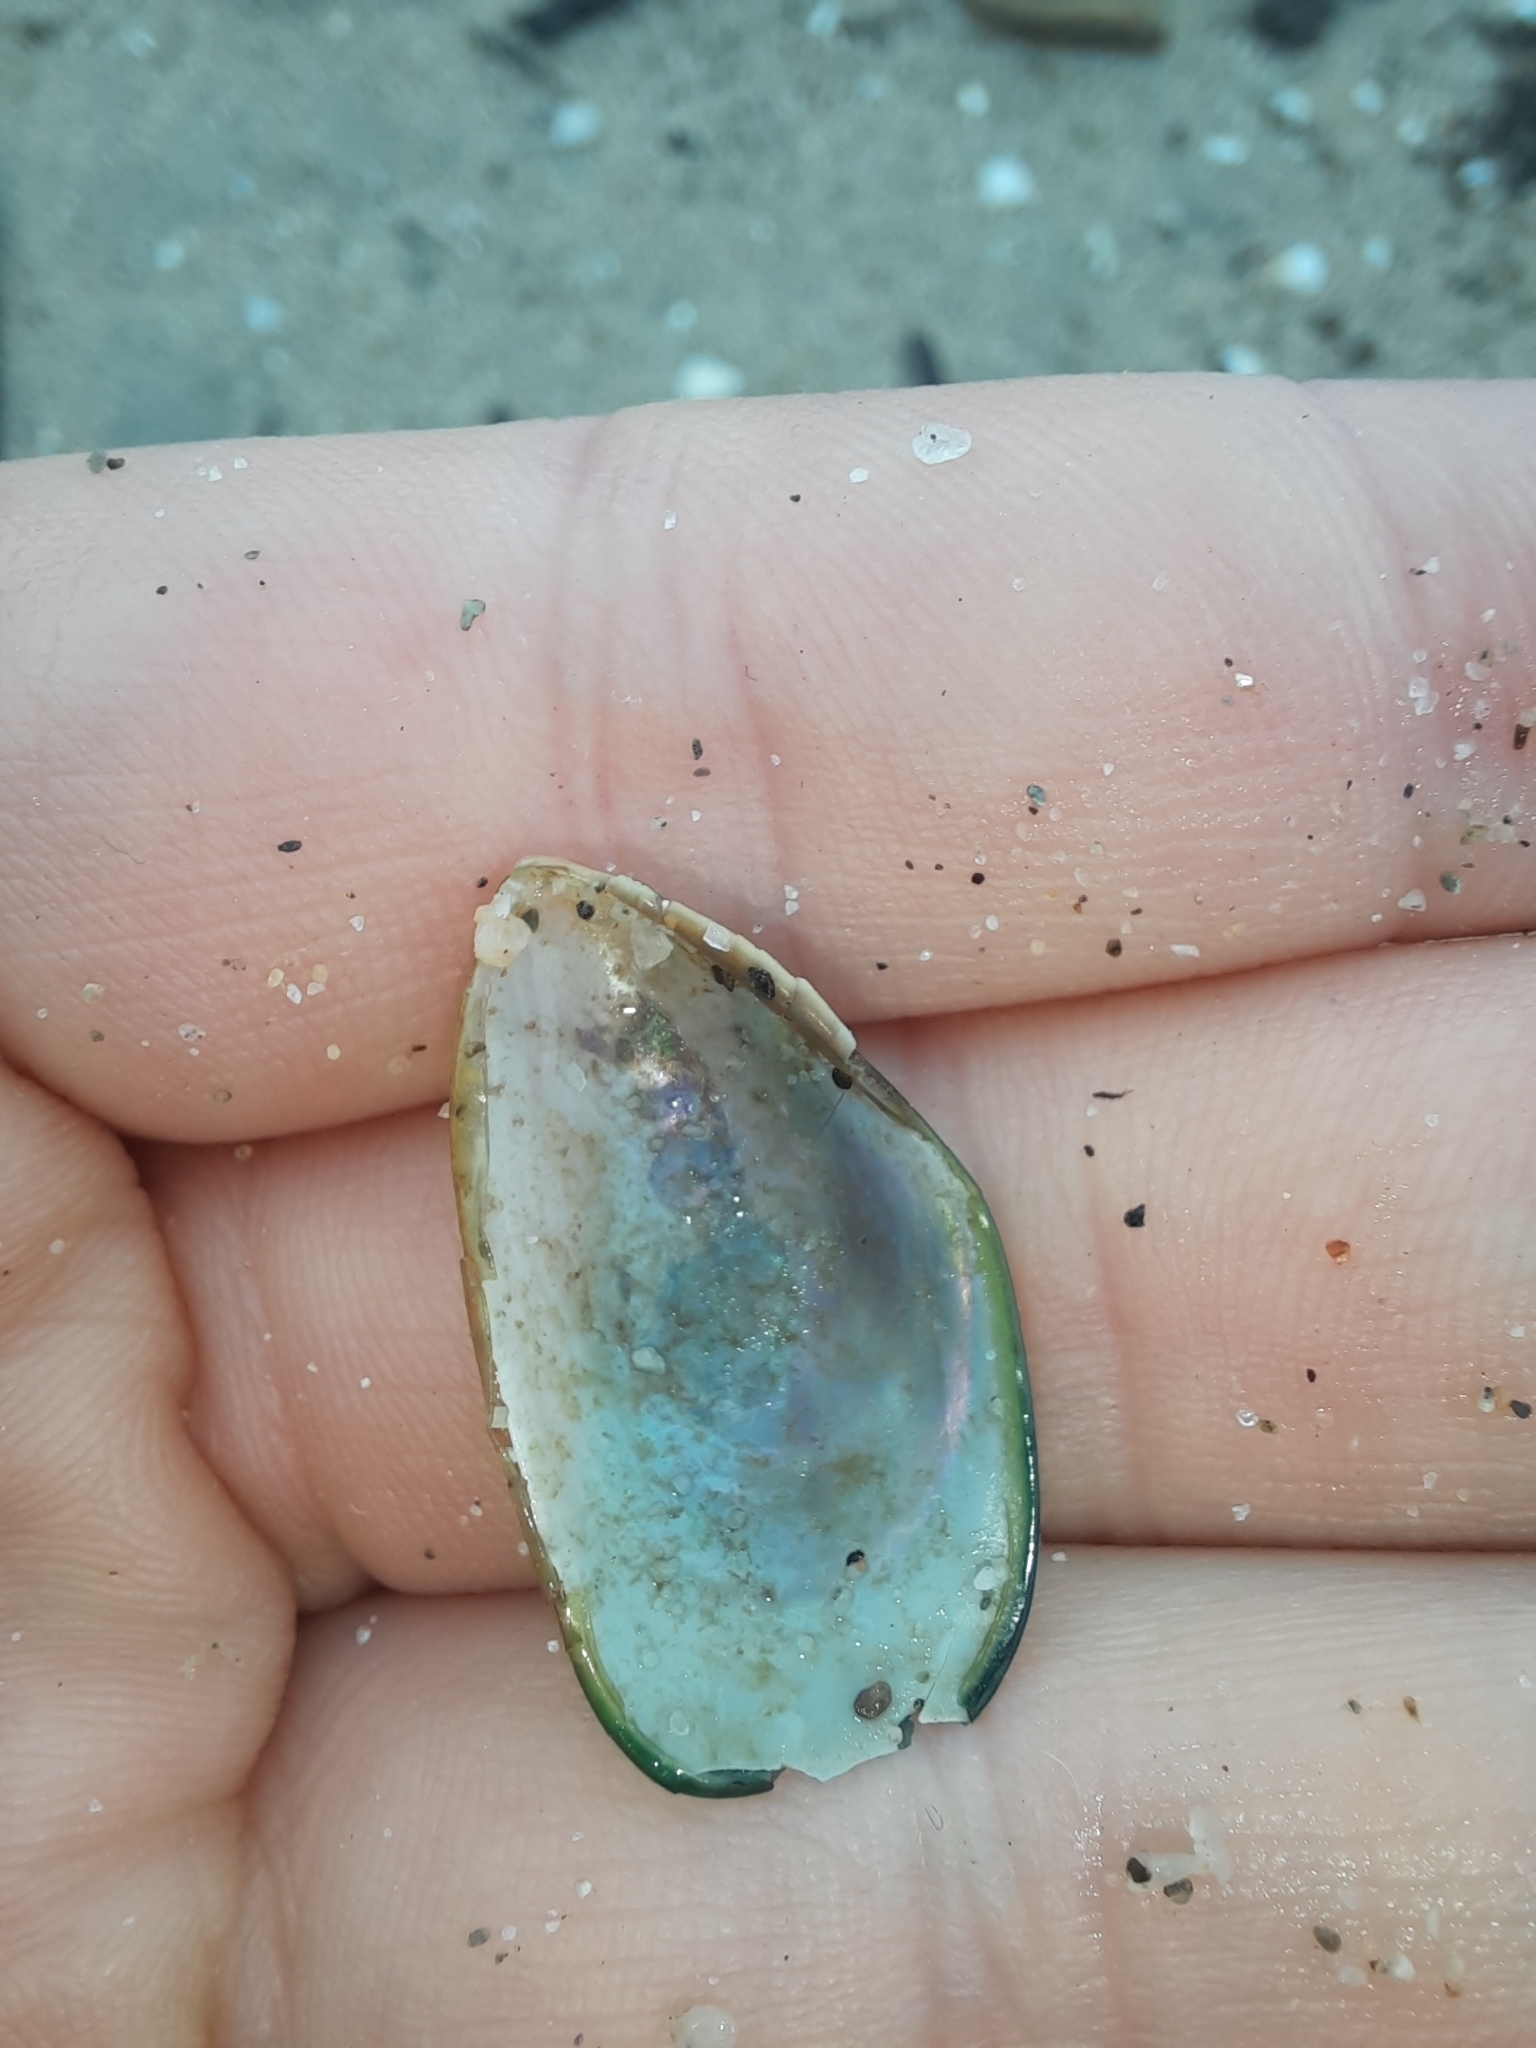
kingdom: Animalia
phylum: Mollusca
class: Bivalvia
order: Mytilida
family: Mytilidae
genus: Perna
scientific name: Perna canaliculus
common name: New zealand greenshelltm
